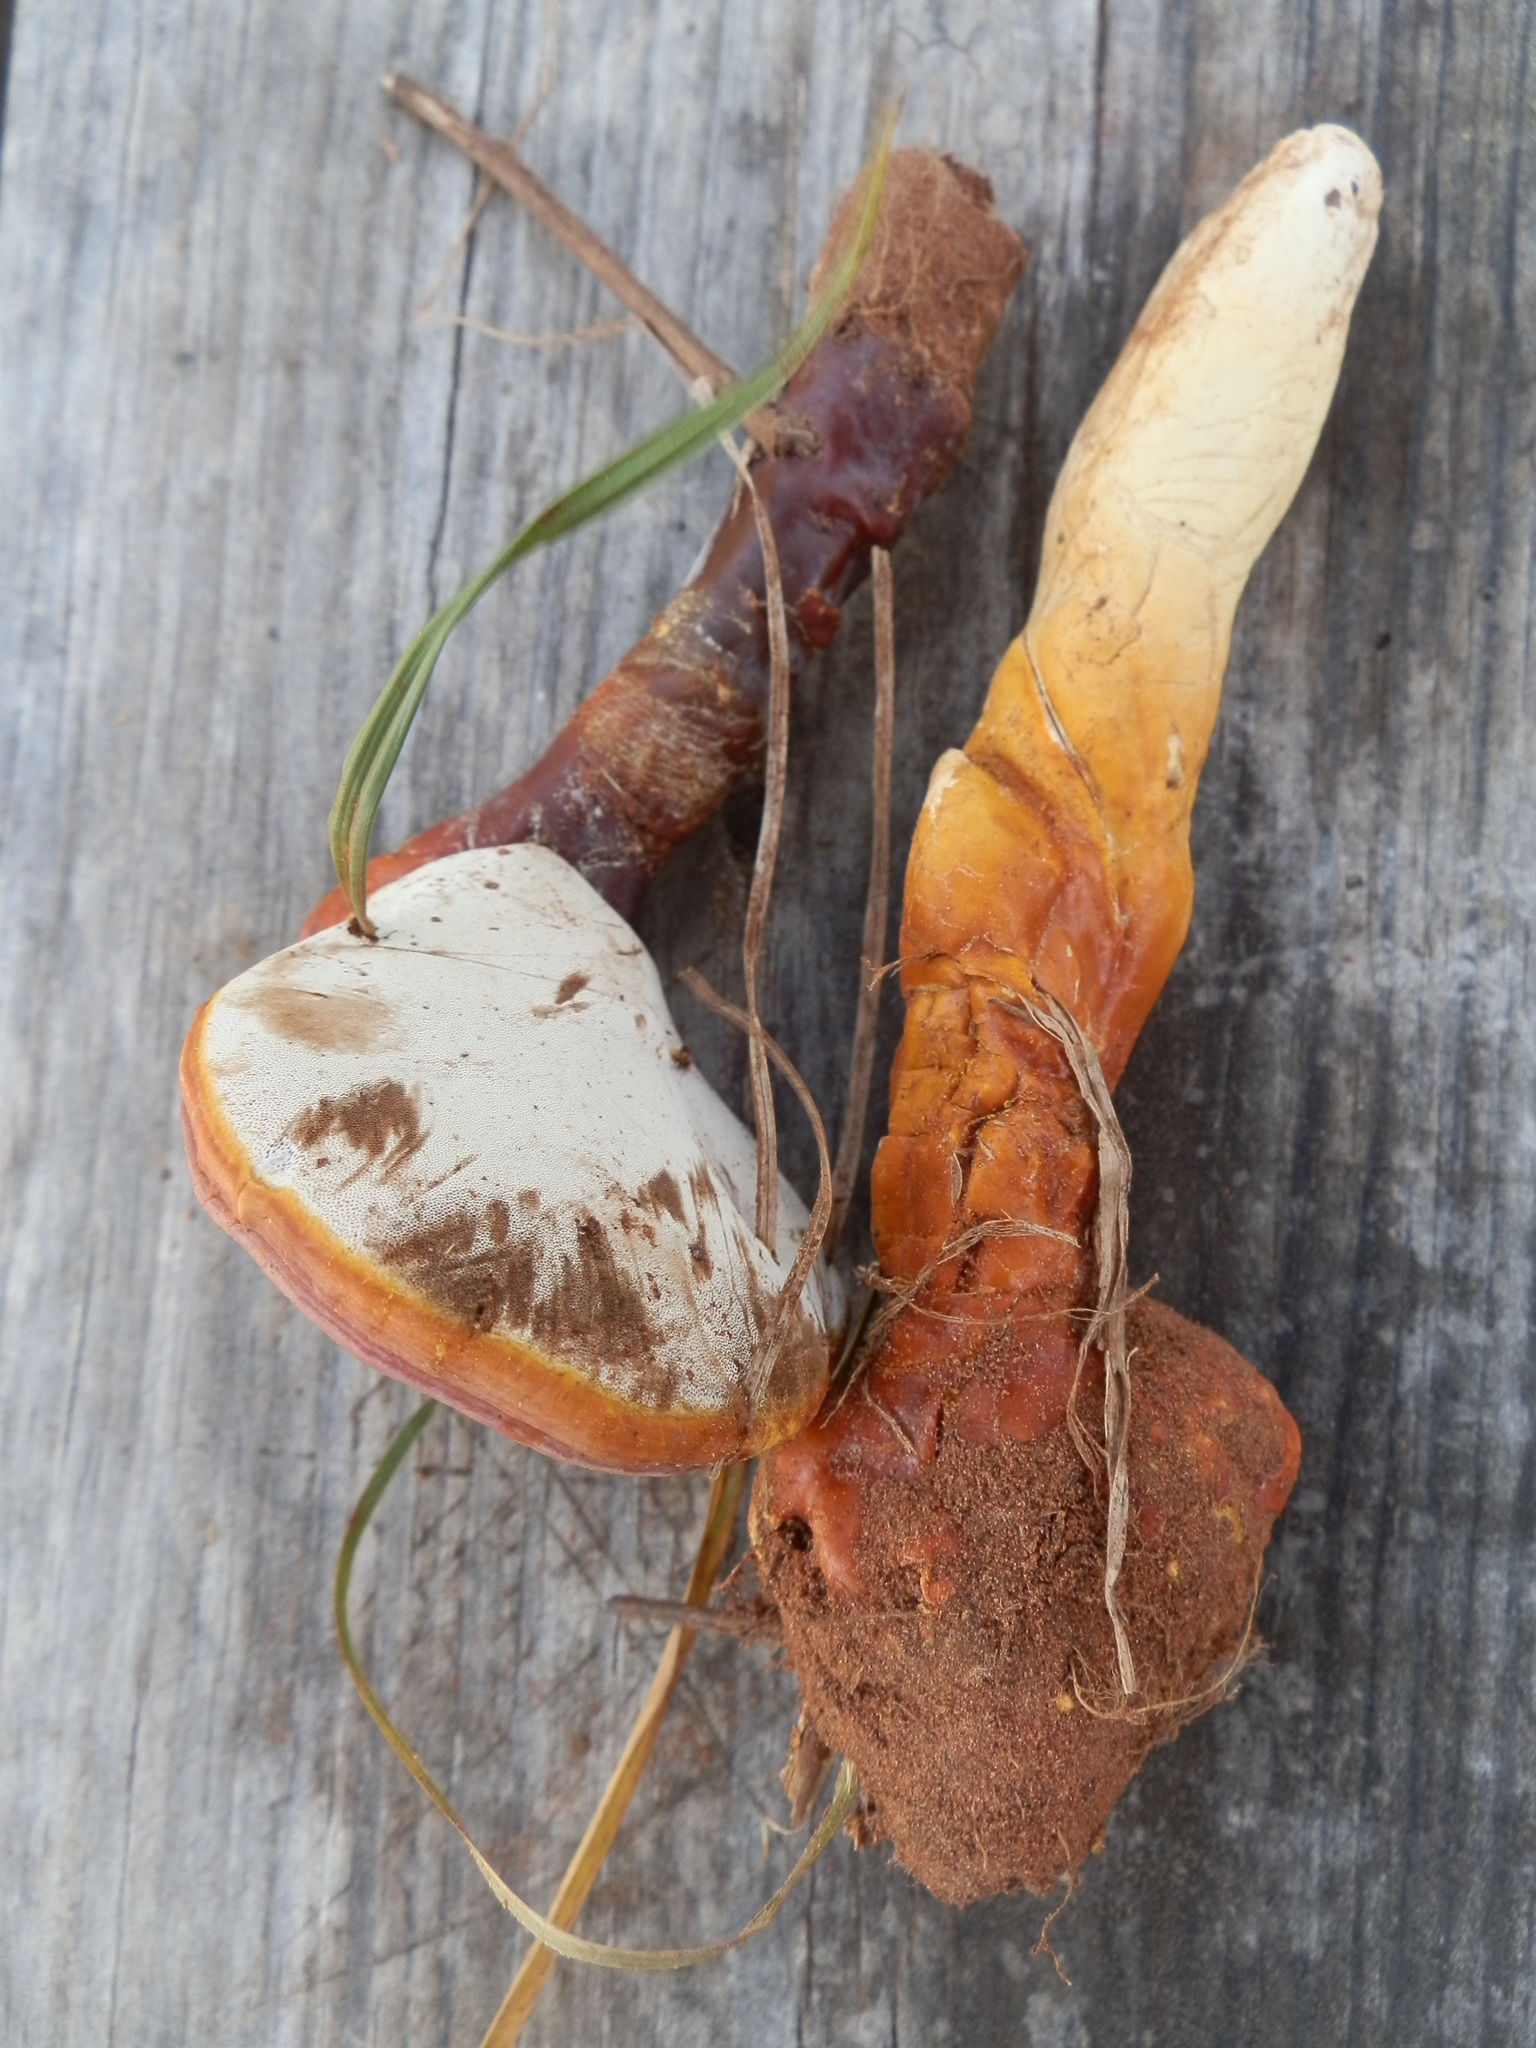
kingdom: Fungi
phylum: Basidiomycota
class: Agaricomycetes
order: Polyporales
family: Polyporaceae
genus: Ganoderma
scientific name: Ganoderma curtisii
